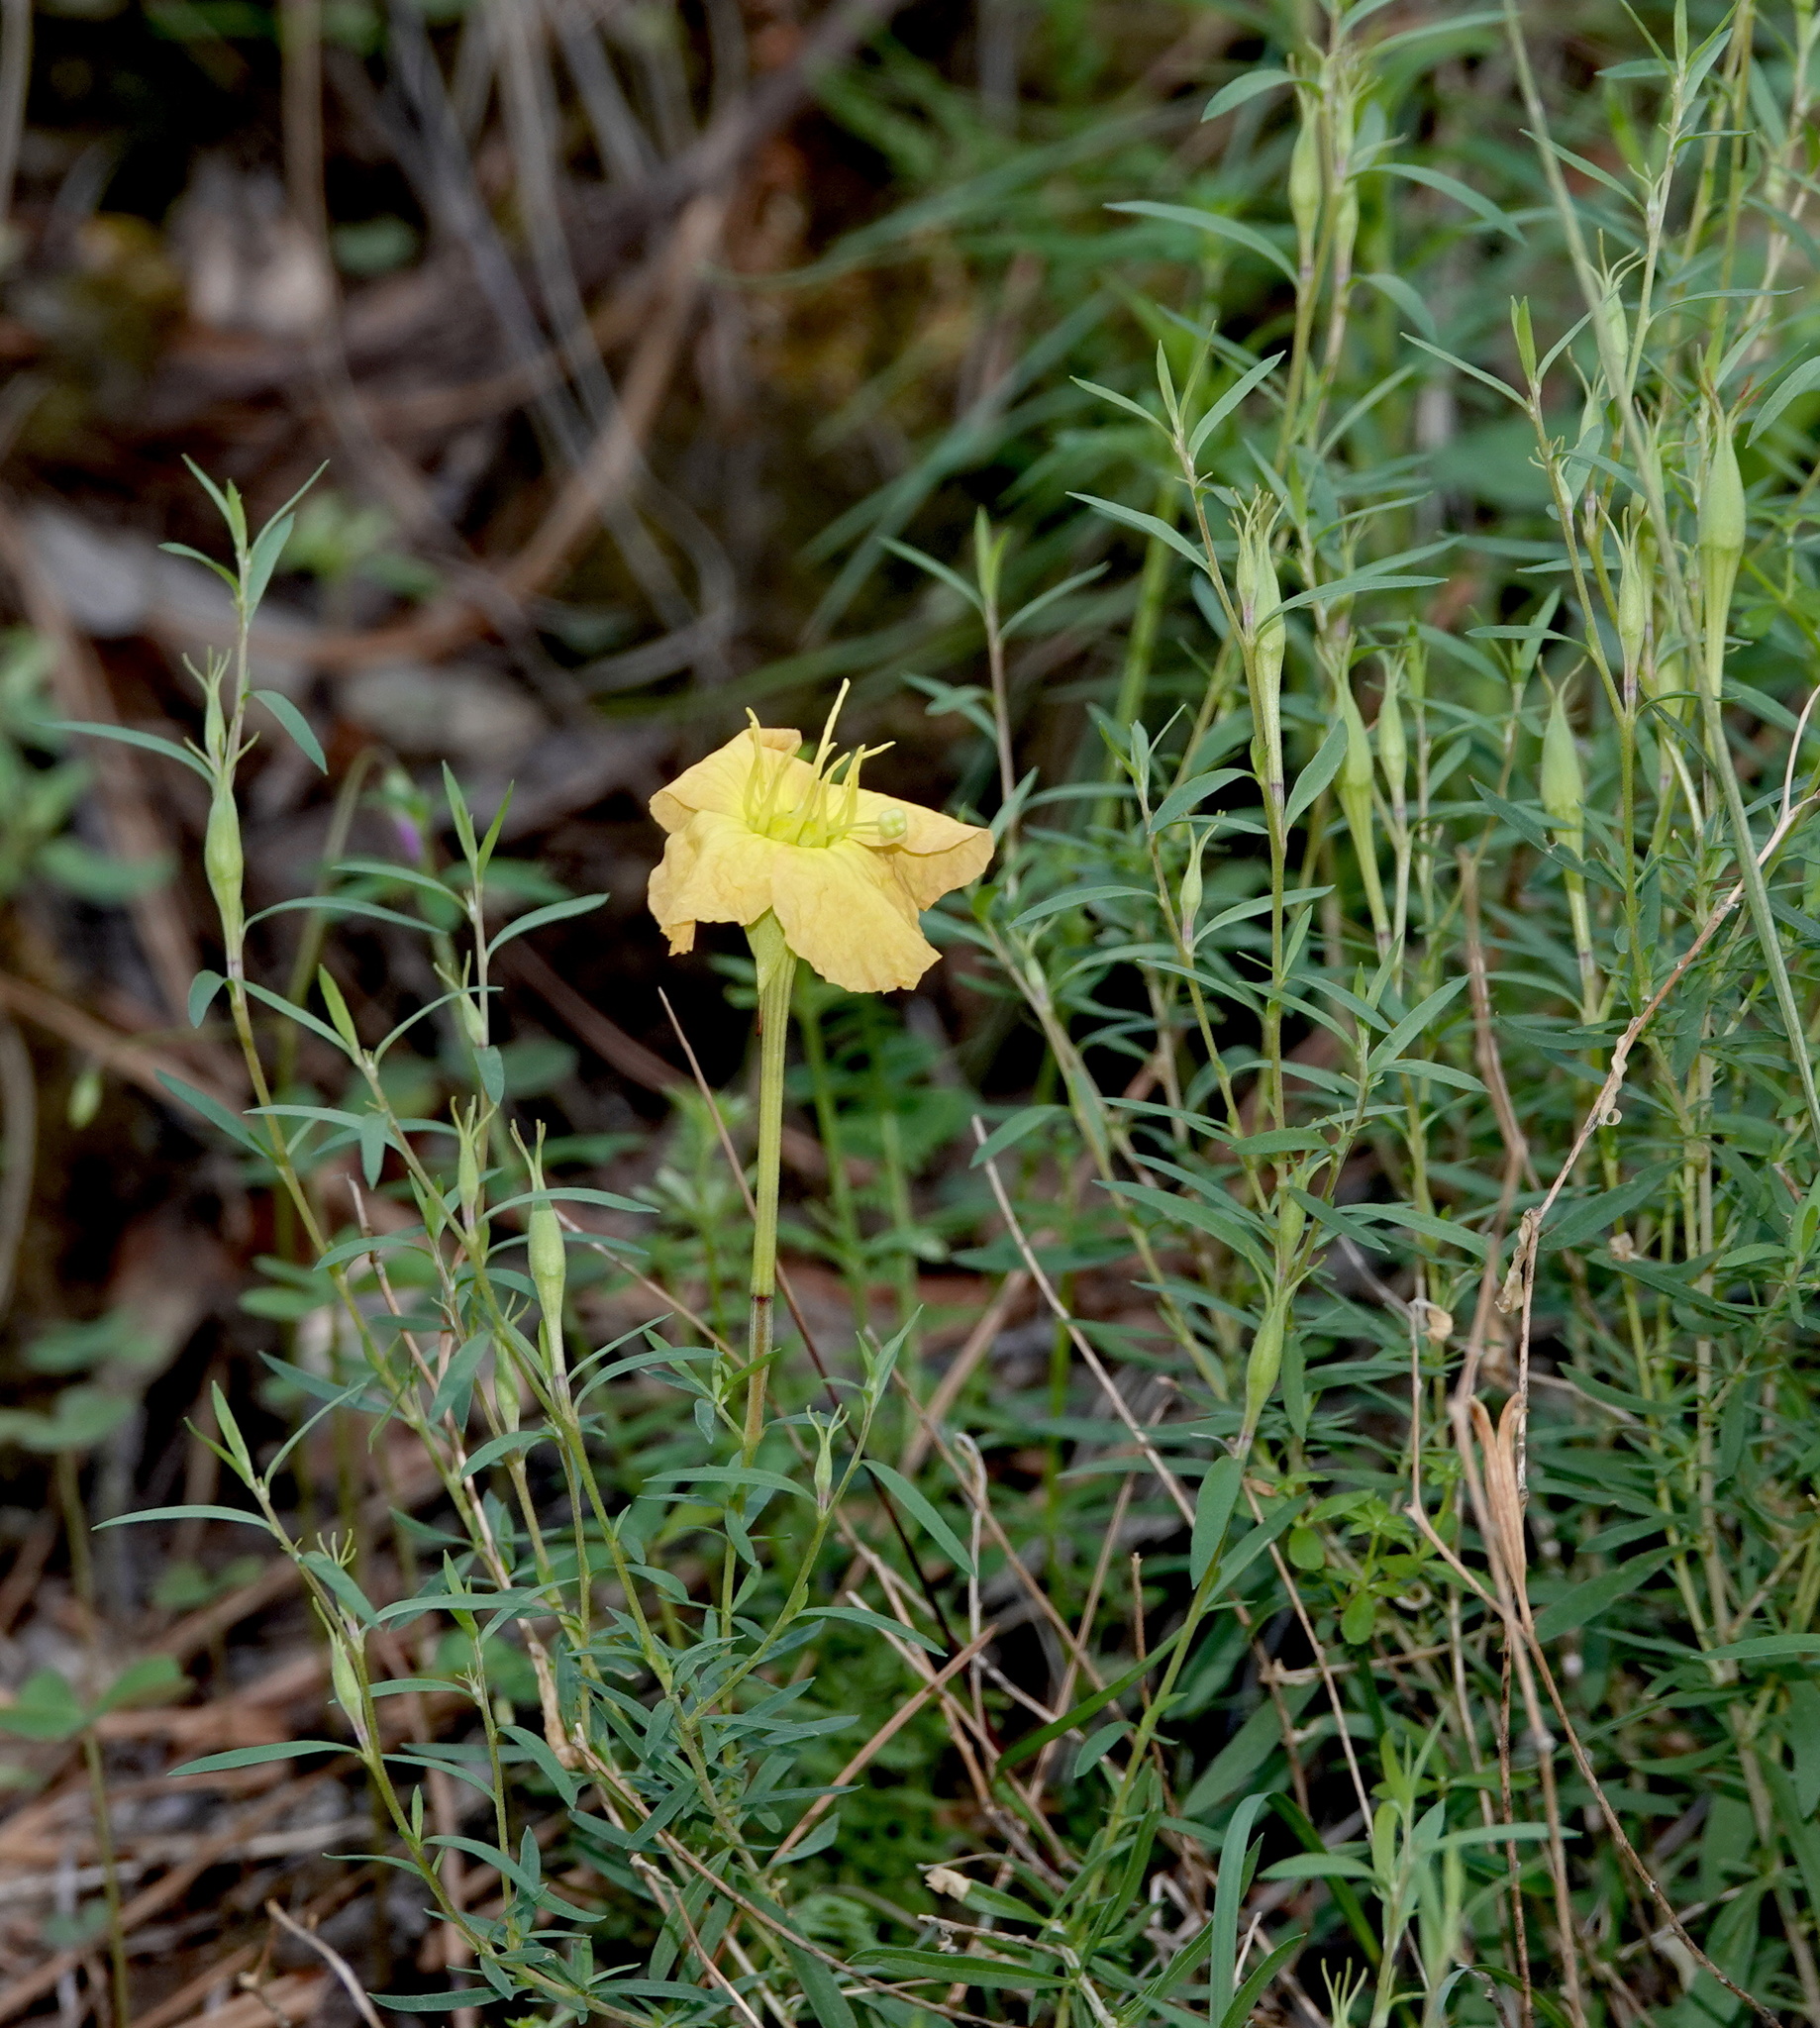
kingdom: Plantae
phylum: Tracheophyta
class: Magnoliopsida
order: Myrtales
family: Onagraceae
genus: Oenothera
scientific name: Oenothera toumeyi
